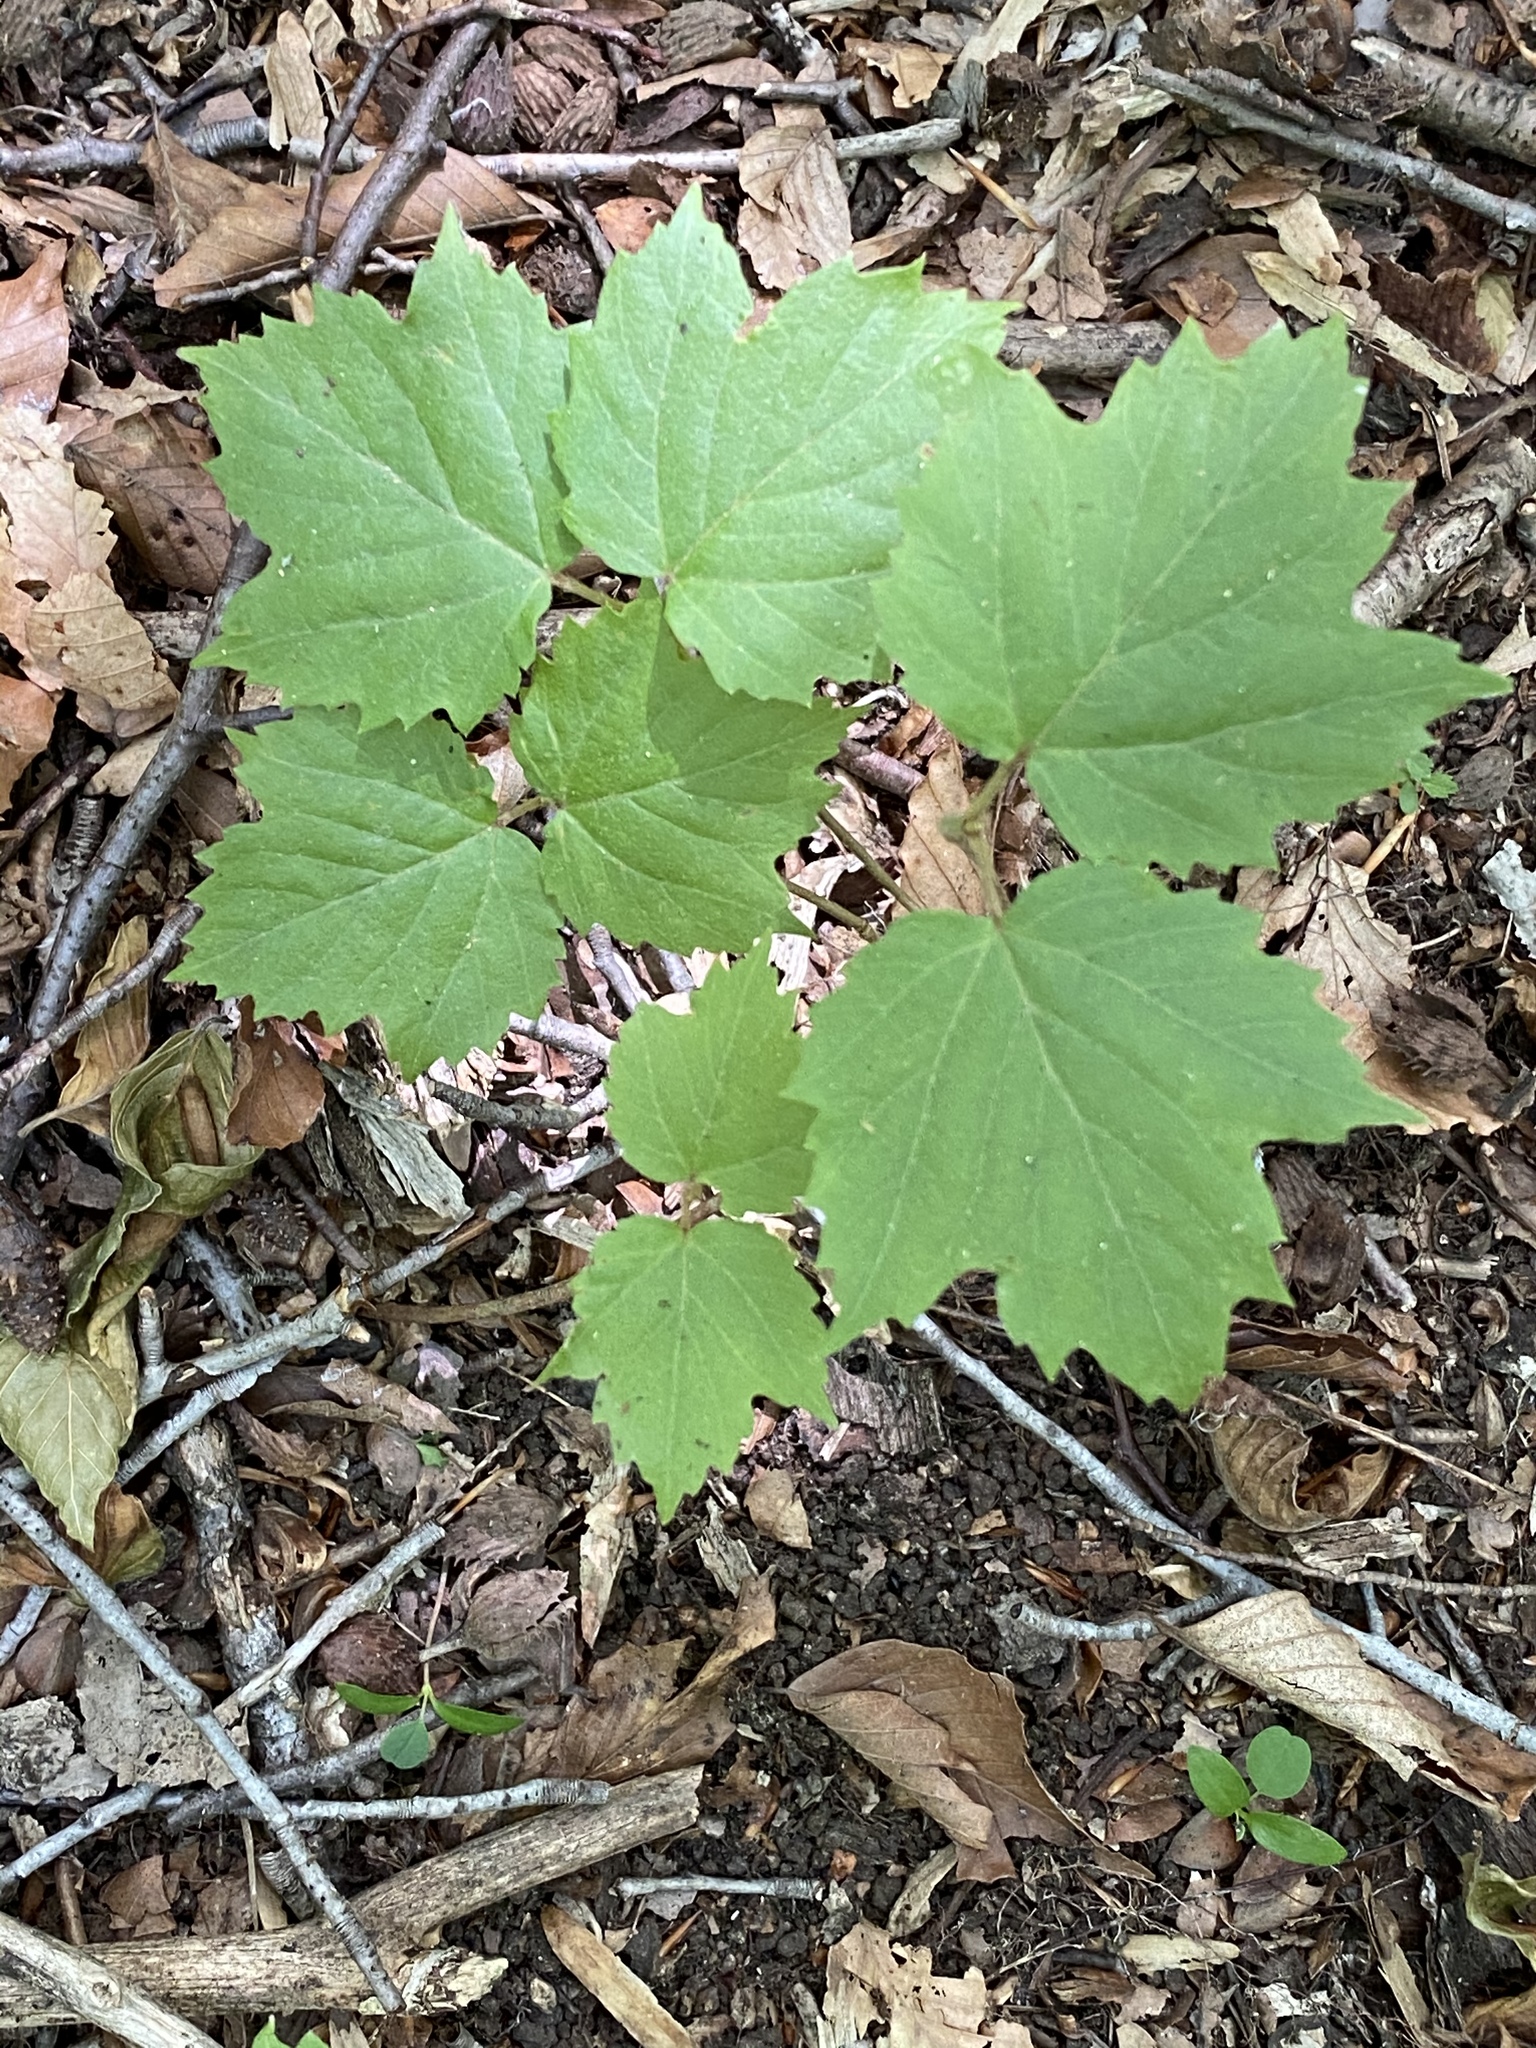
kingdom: Plantae
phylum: Tracheophyta
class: Magnoliopsida
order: Dipsacales
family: Viburnaceae
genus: Viburnum
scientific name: Viburnum acerifolium
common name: Dockmackie
